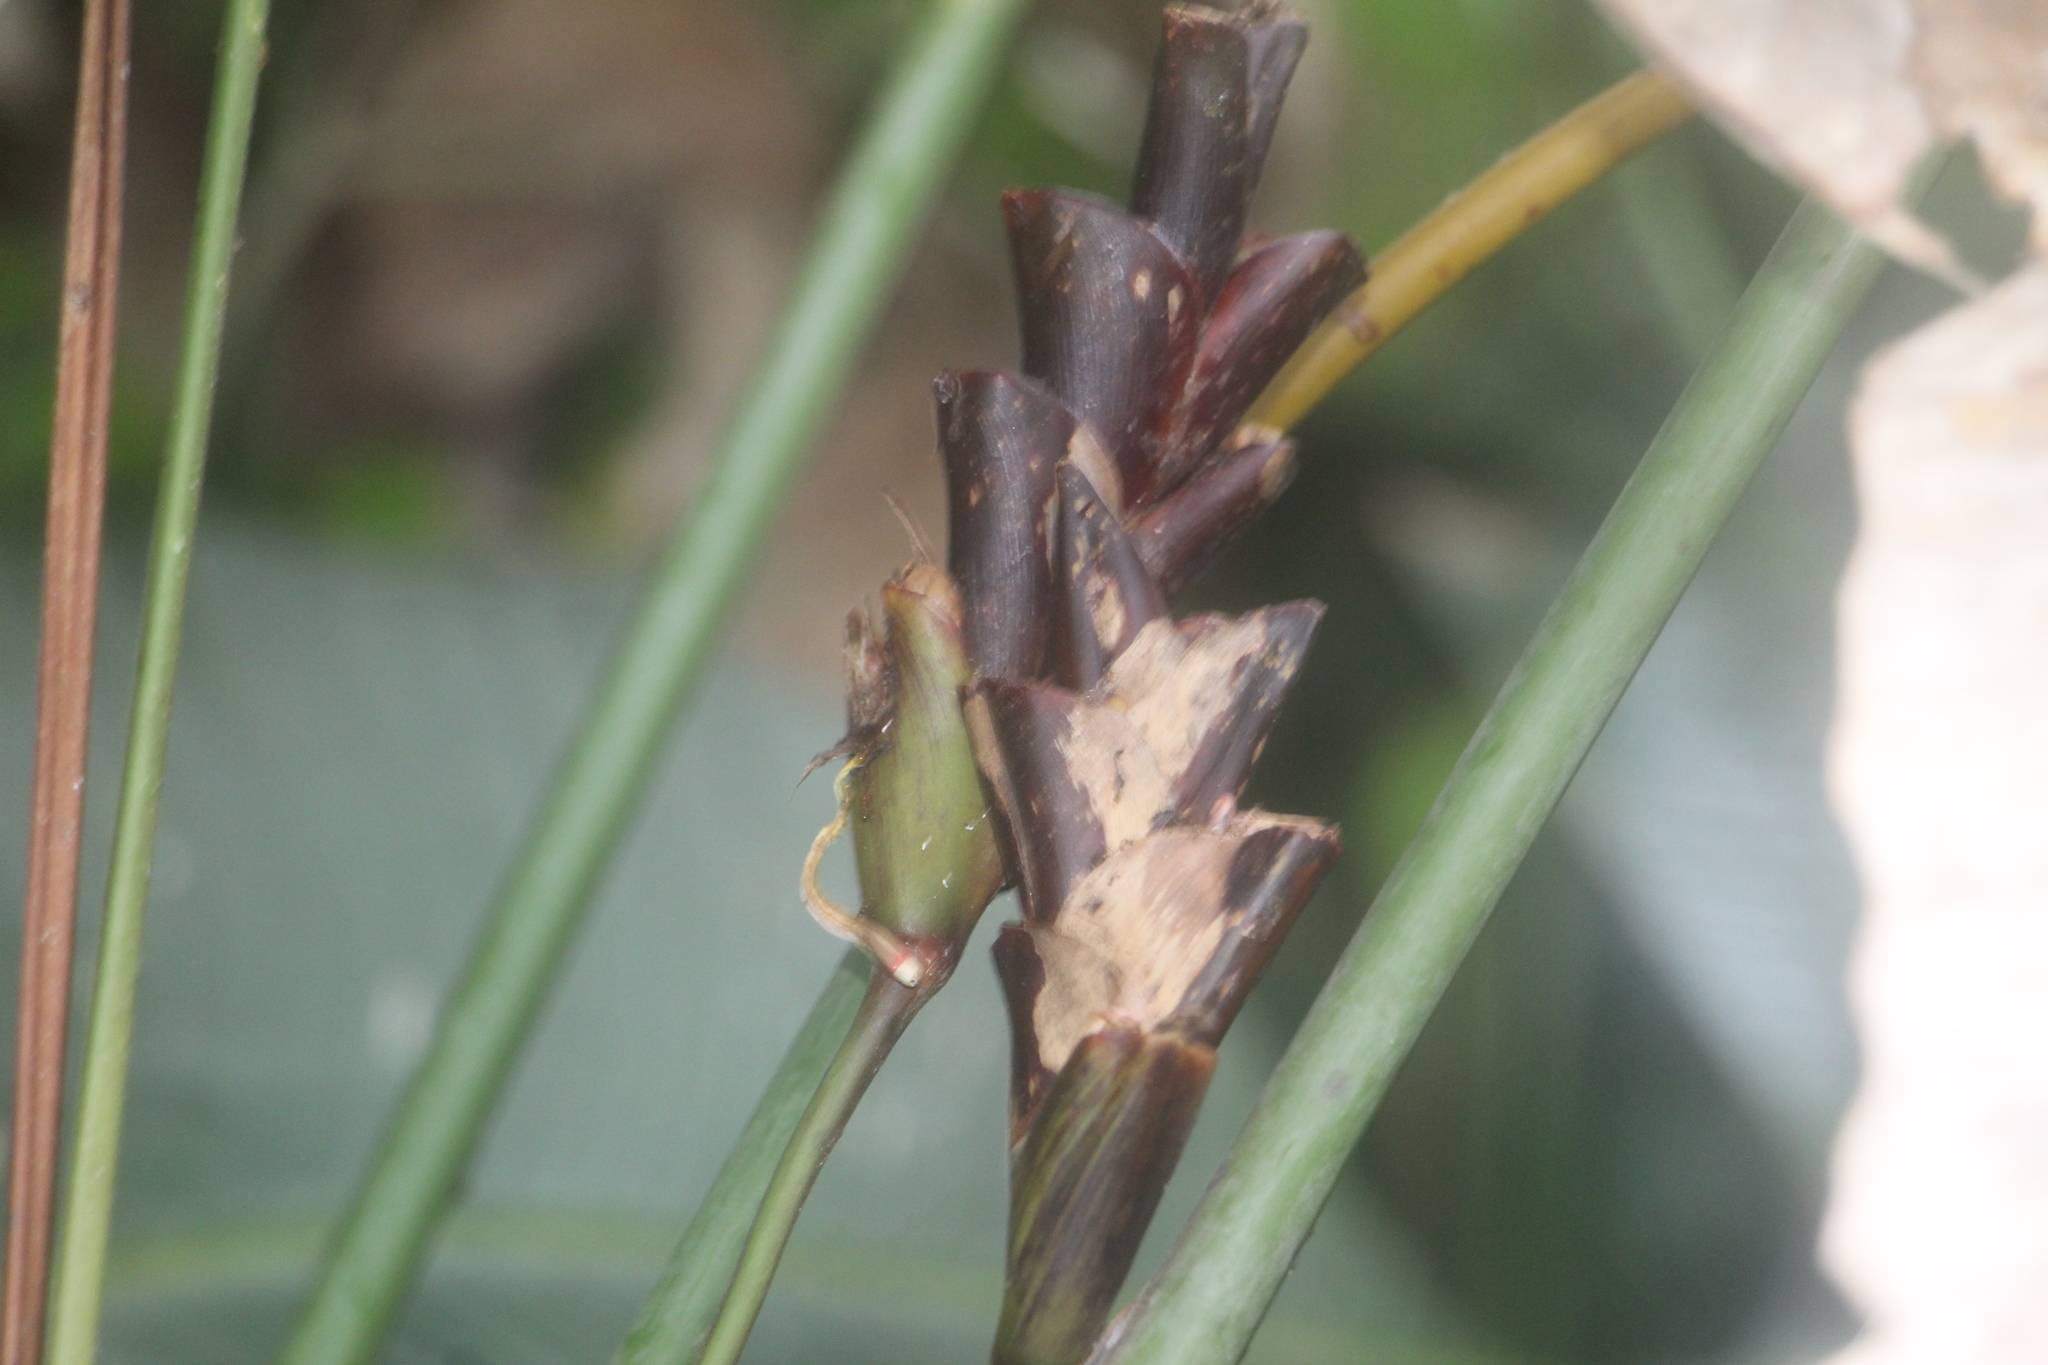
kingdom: Plantae
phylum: Tracheophyta
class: Liliopsida
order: Zingiberales
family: Marantaceae
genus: Calathea
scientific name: Calathea lutea
